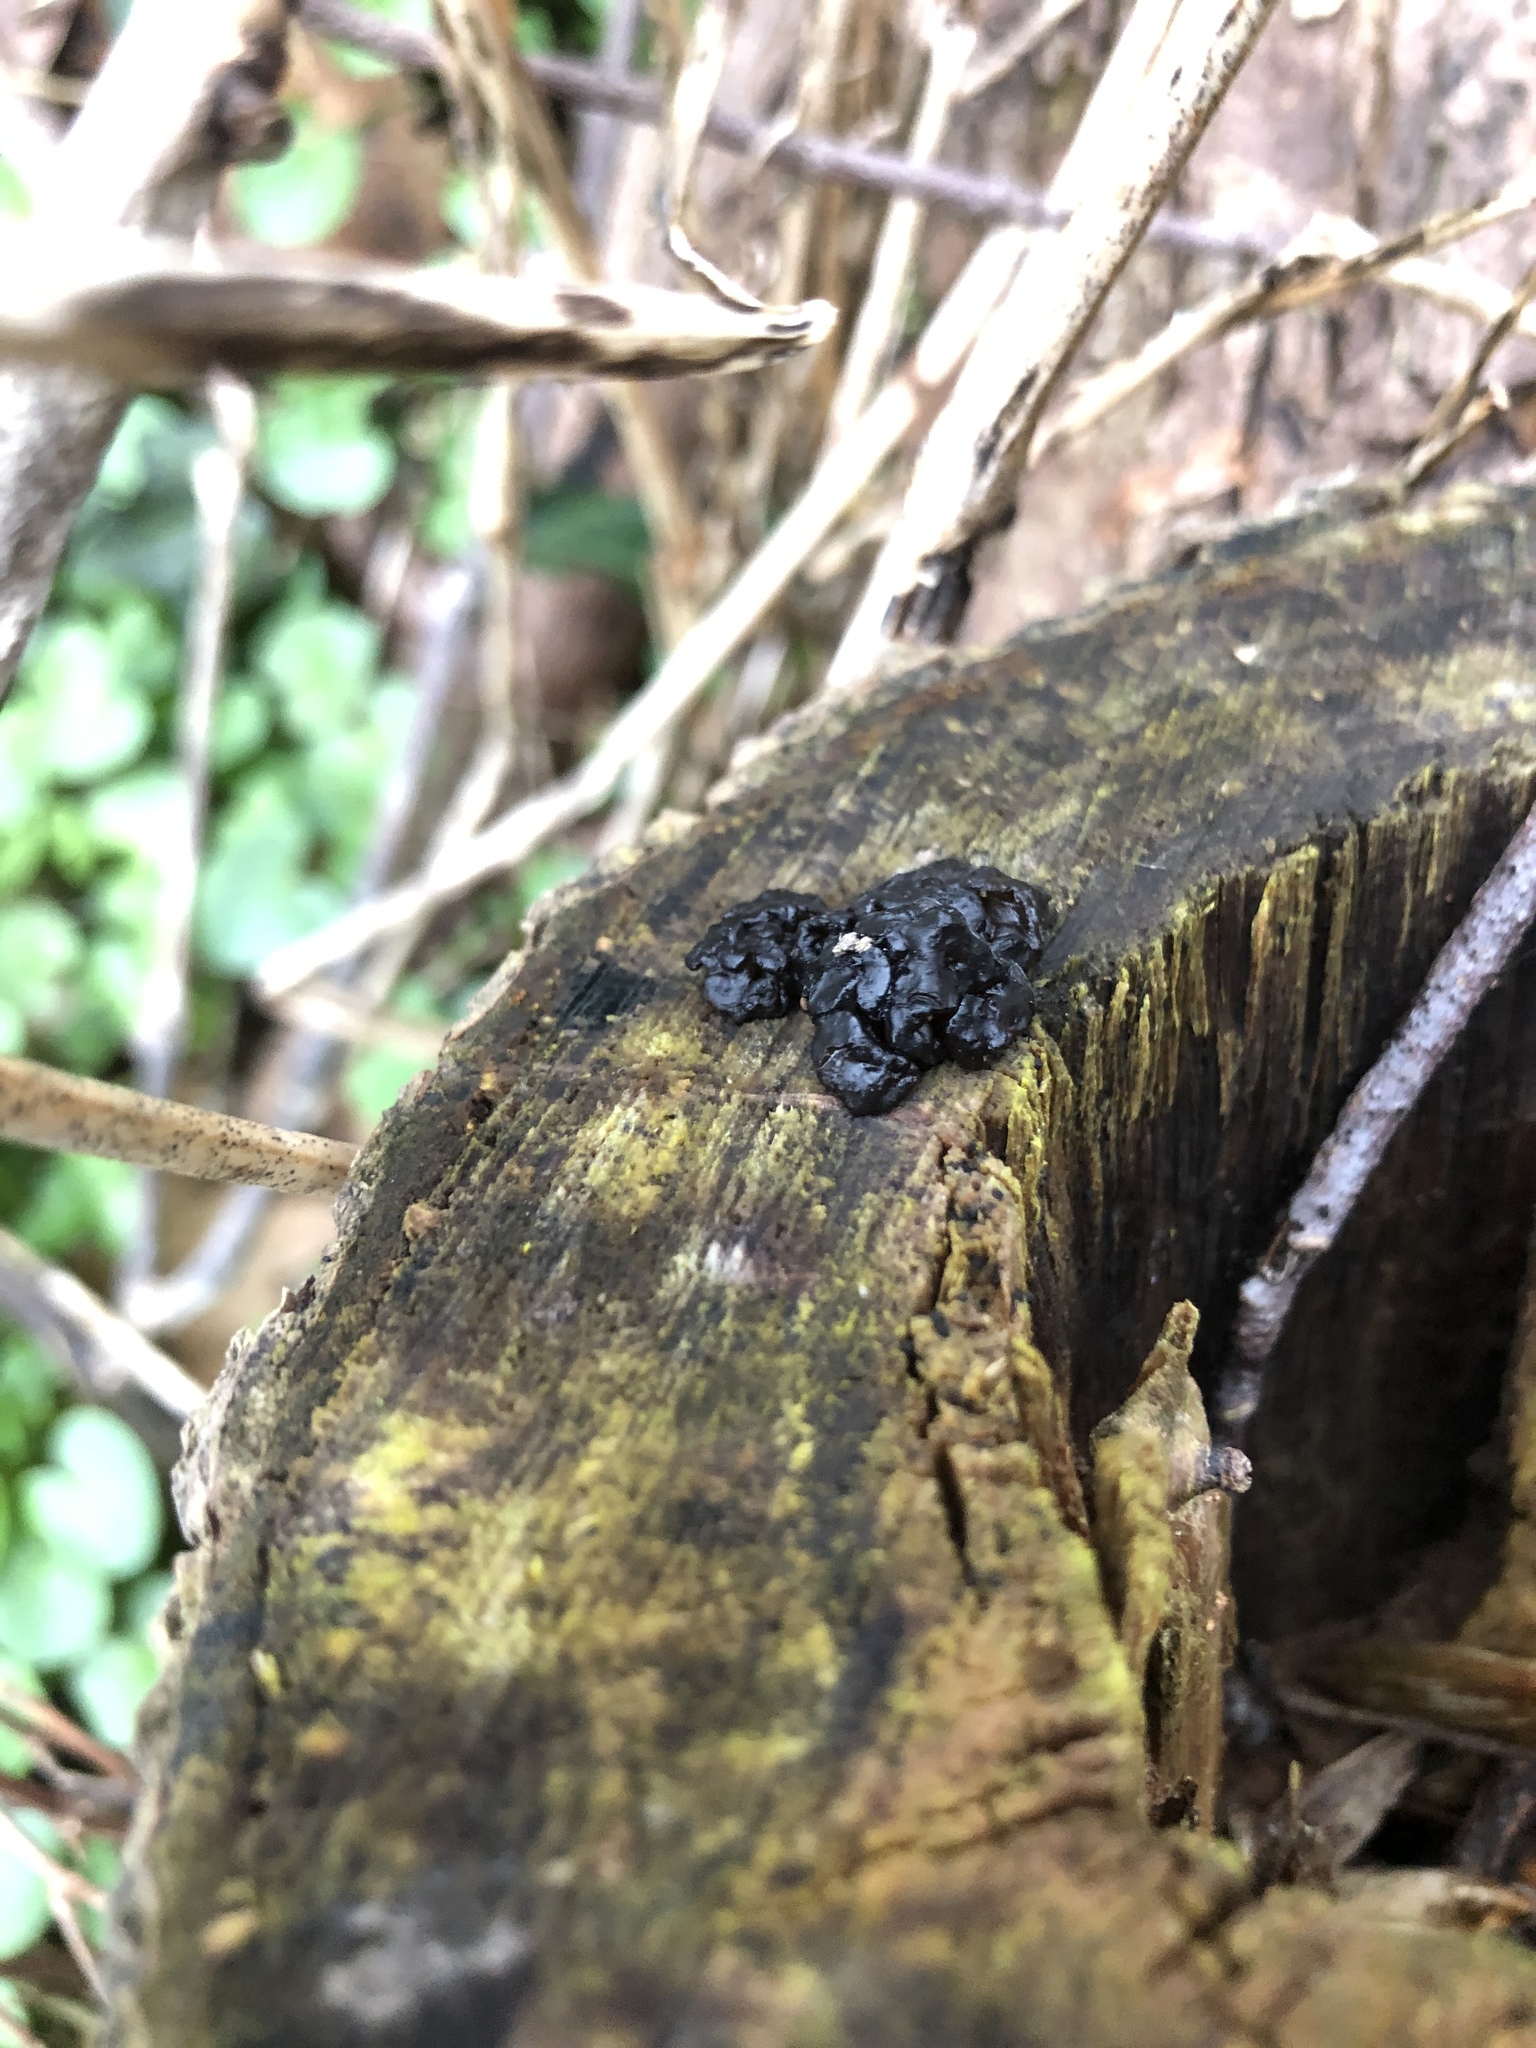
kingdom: Fungi
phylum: Basidiomycota
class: Agaricomycetes
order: Auriculariales
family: Auriculariaceae
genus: Exidia
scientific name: Exidia glandulosa
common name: Witches' butter
